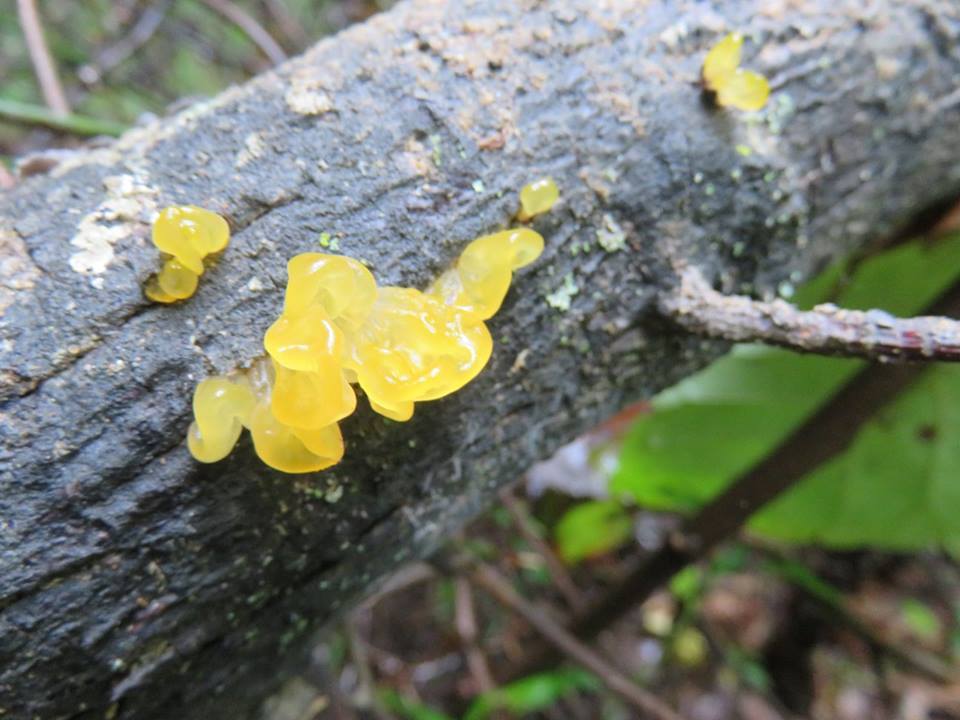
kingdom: Fungi
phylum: Basidiomycota
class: Tremellomycetes
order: Tremellales
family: Tremellaceae
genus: Tremella
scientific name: Tremella mesenterica
